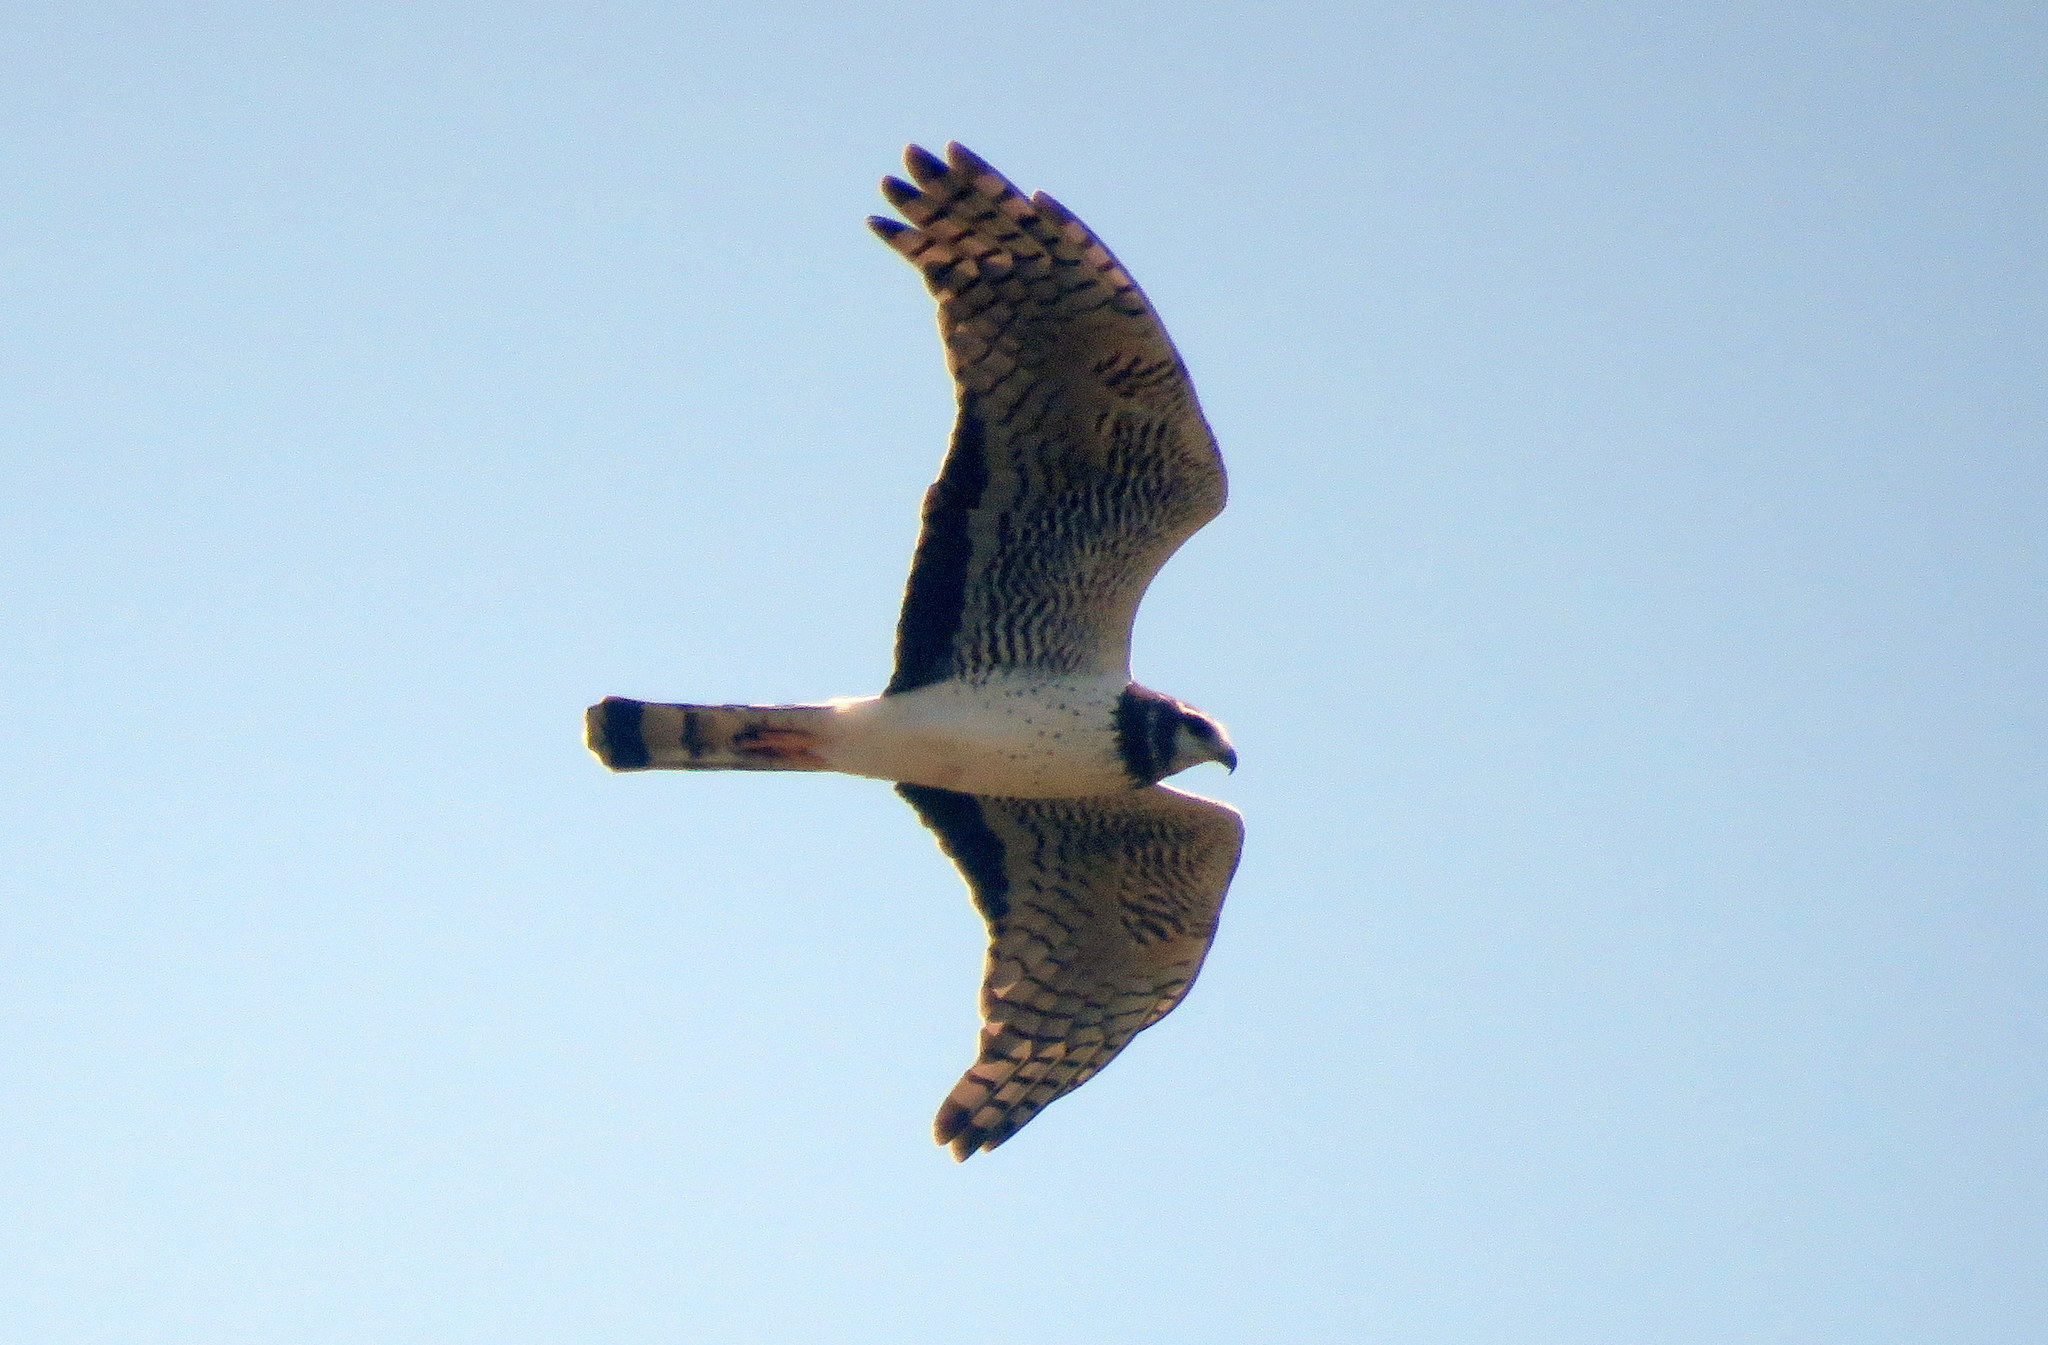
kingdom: Animalia
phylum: Chordata
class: Aves
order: Accipitriformes
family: Accipitridae
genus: Circus
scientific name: Circus buffoni
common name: Long-winged harrier
